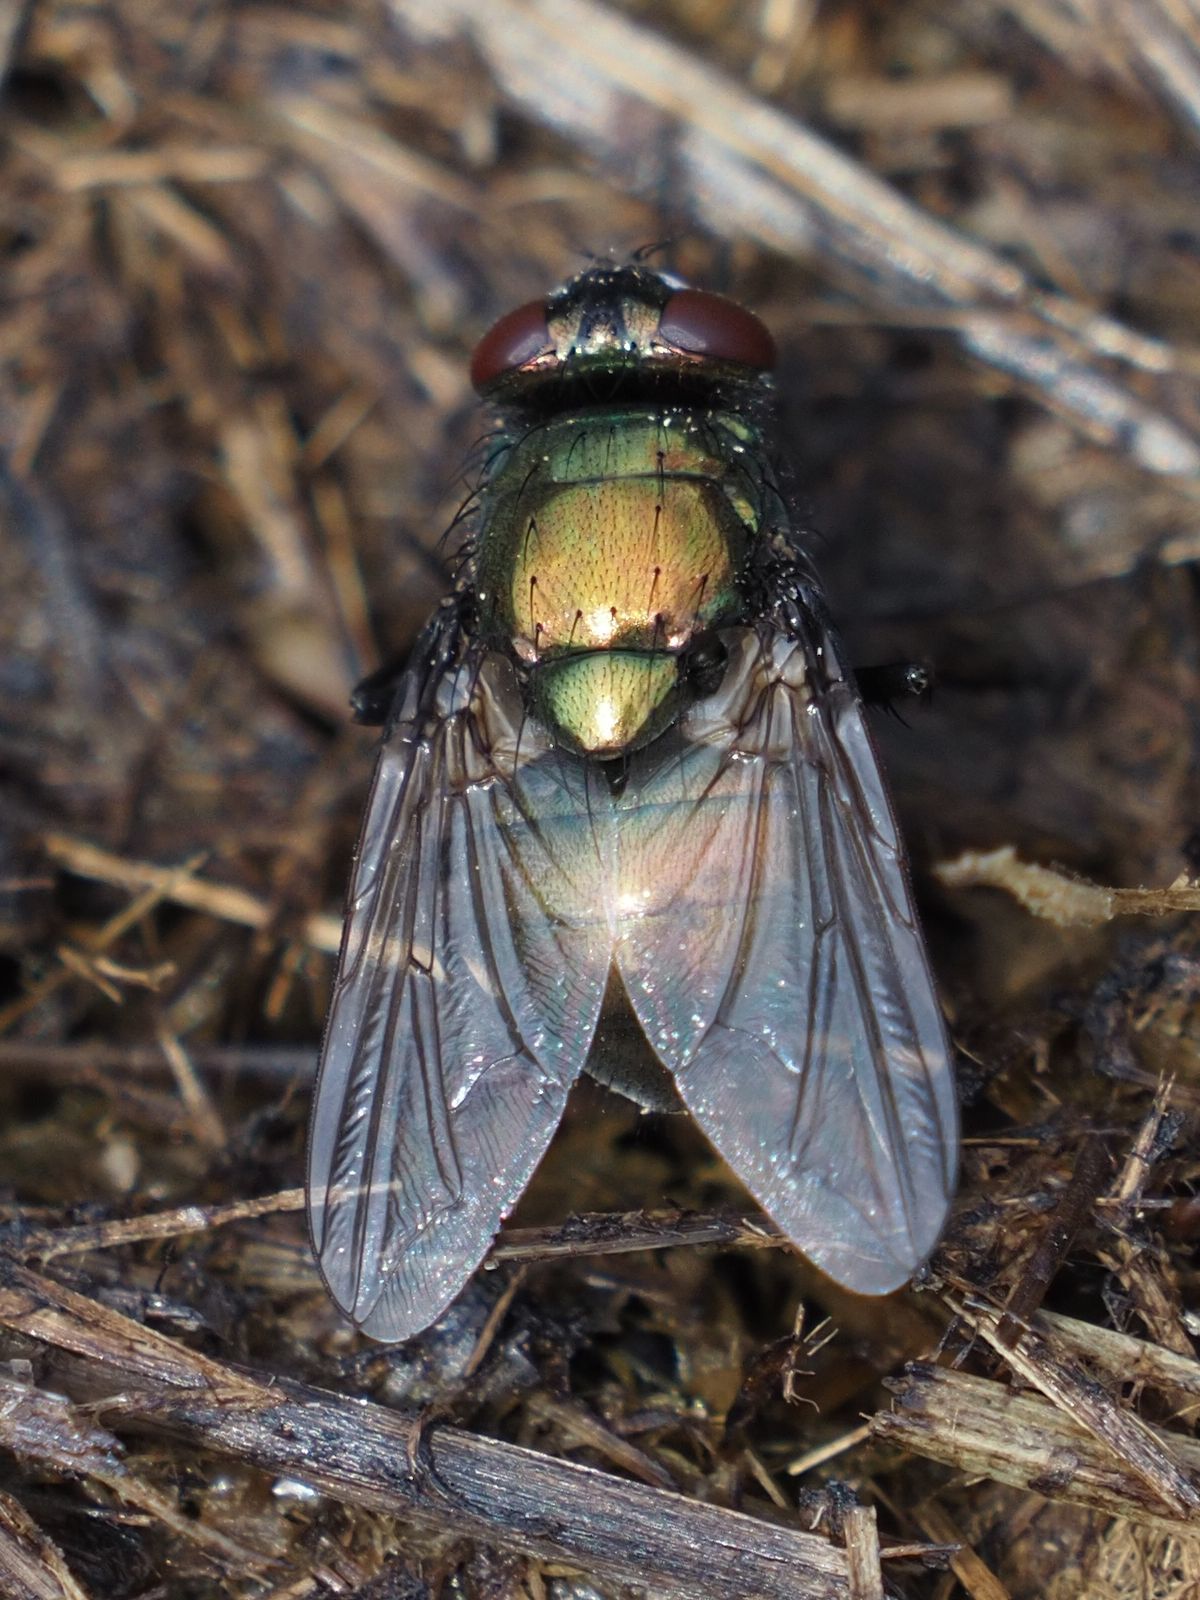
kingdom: Animalia
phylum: Arthropoda
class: Insecta
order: Diptera
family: Muscidae
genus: Neomyia
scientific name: Neomyia cornicina
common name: House fly
